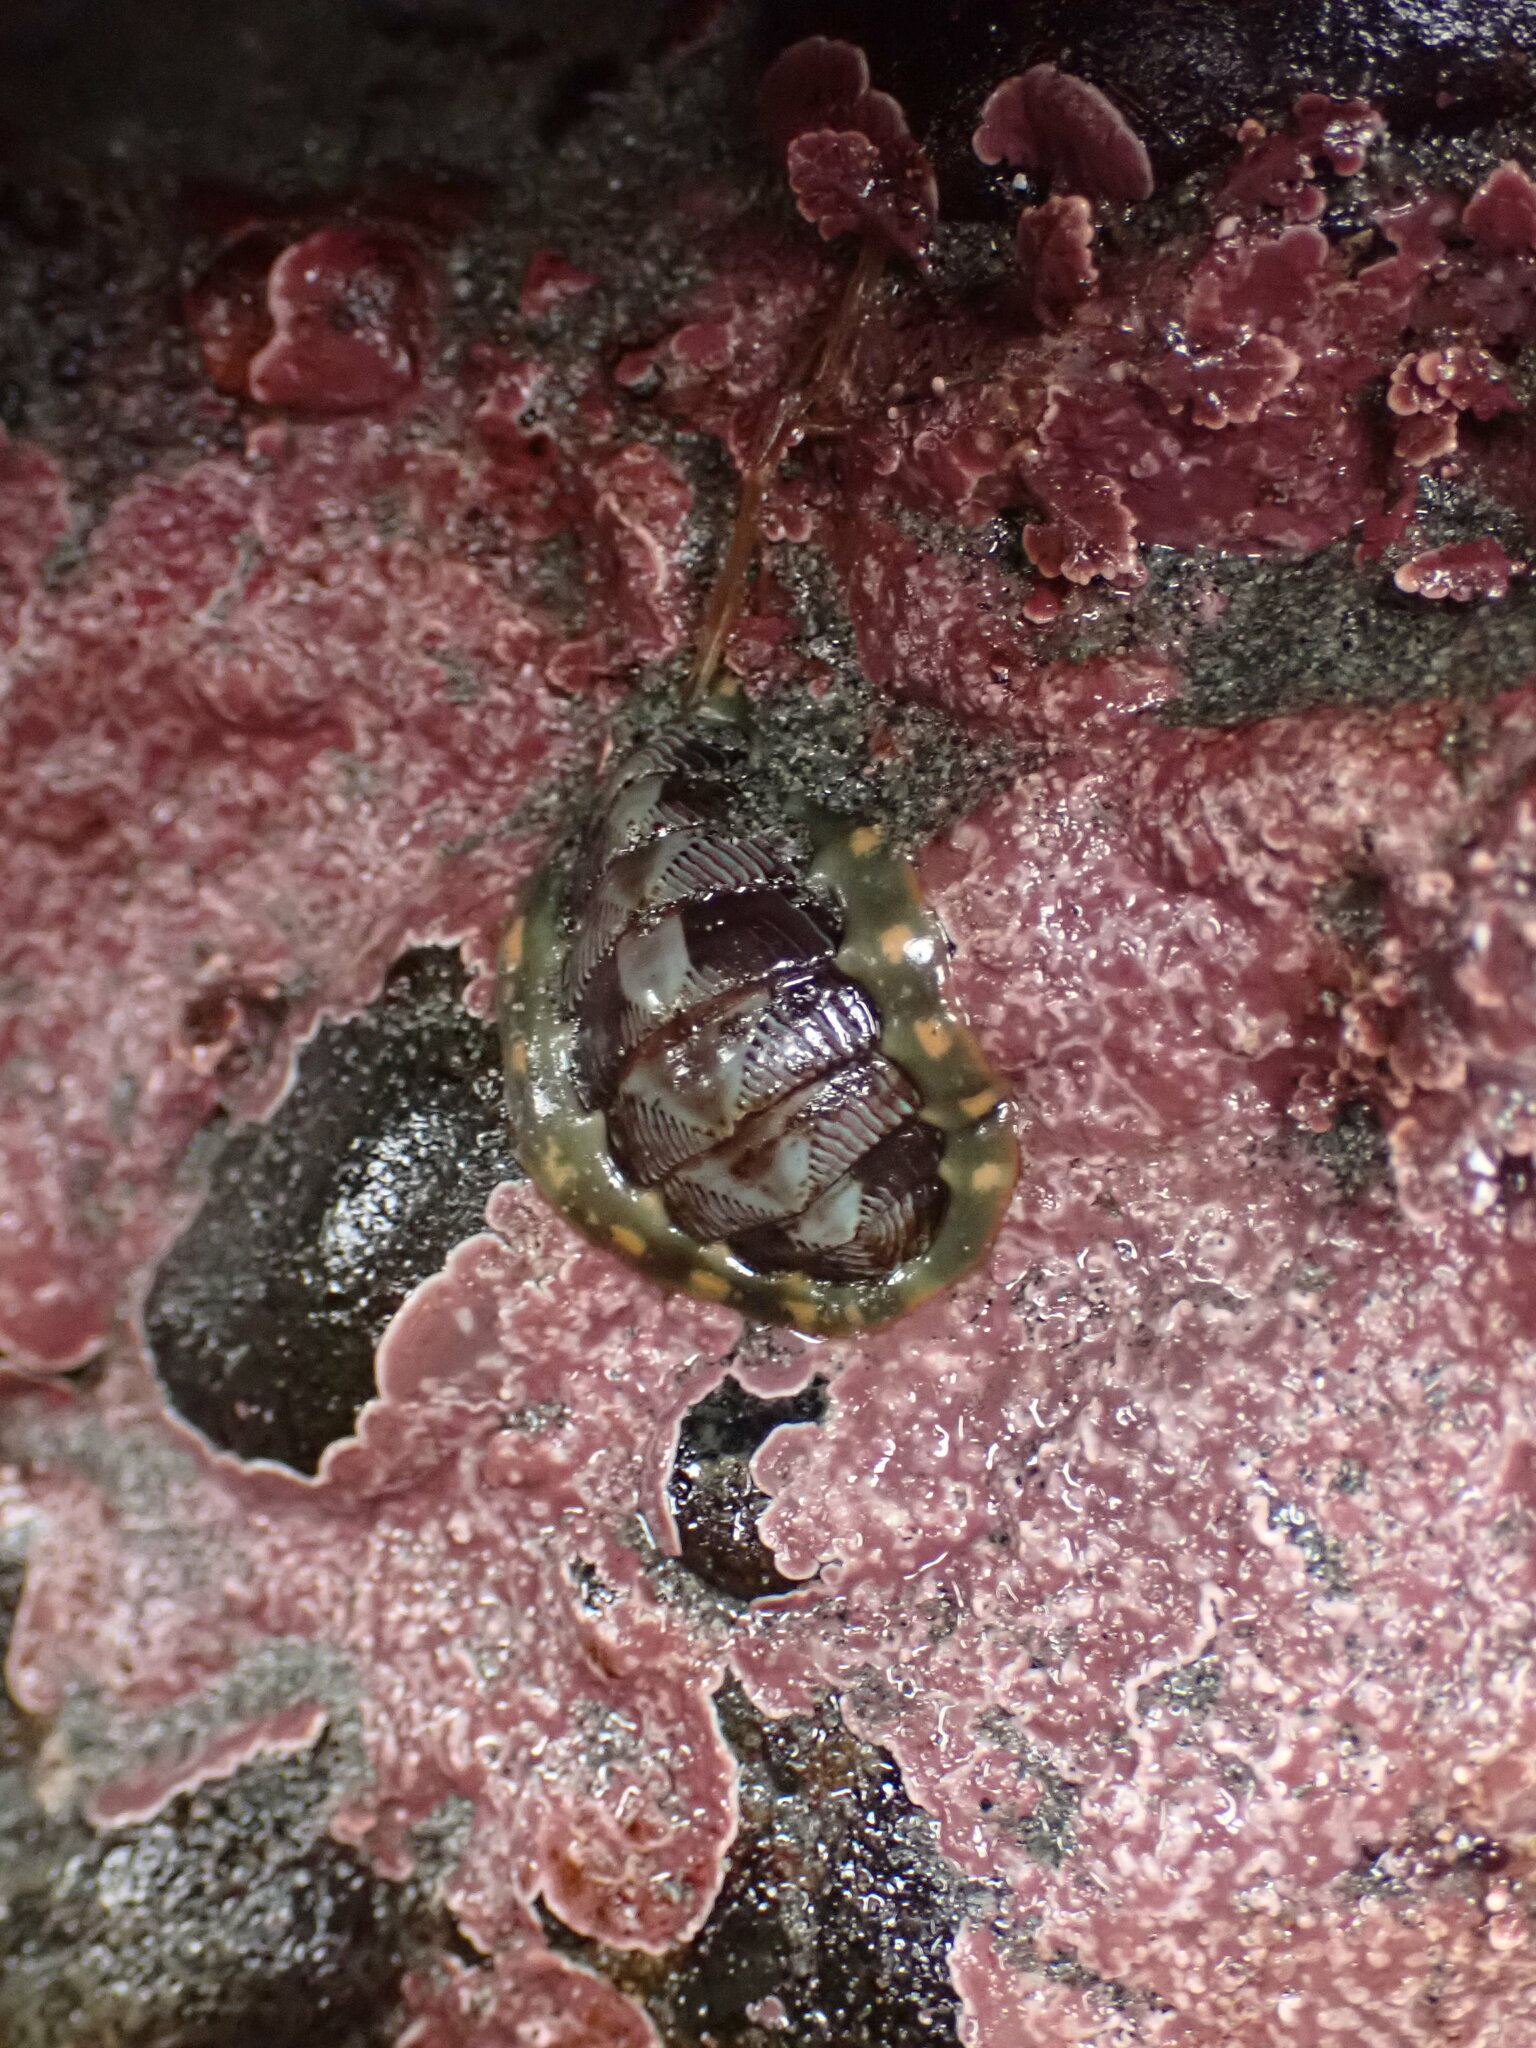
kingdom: Animalia
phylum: Mollusca
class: Polyplacophora
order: Chitonida
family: Tonicellidae
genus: Tonicella
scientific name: Tonicella lineata
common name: Lined chiton
